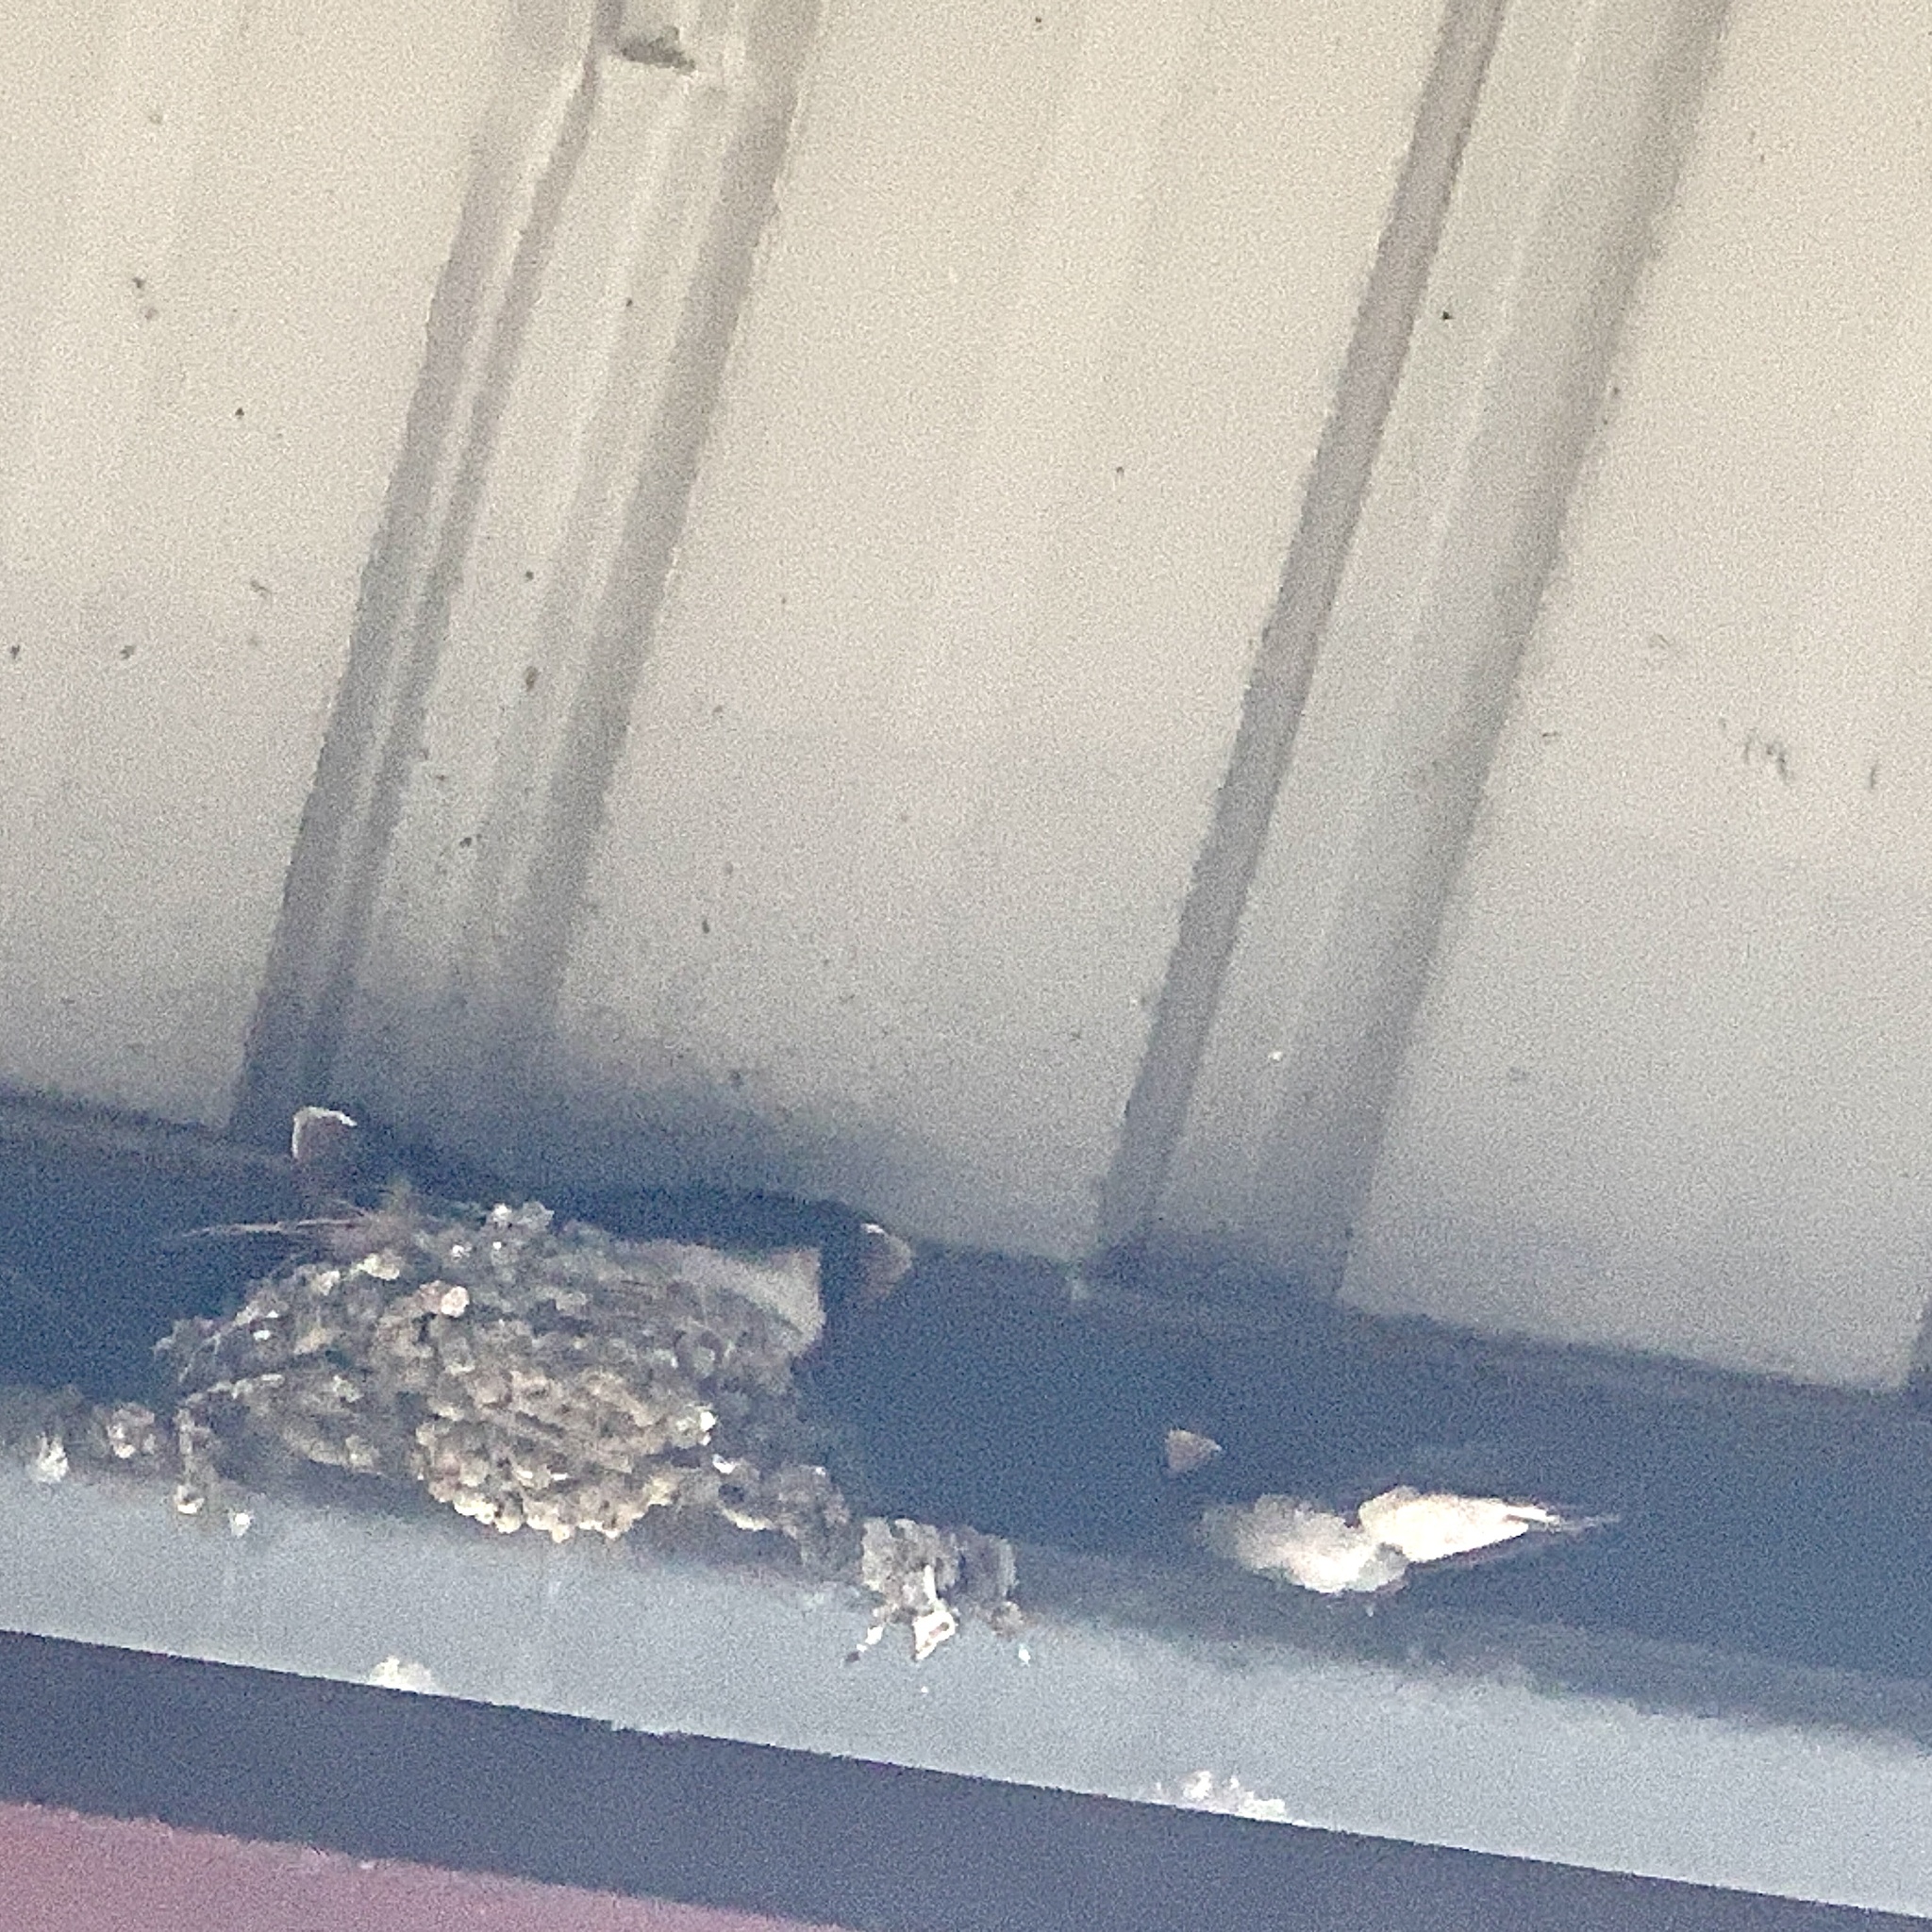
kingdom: Animalia
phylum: Chordata
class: Aves
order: Passeriformes
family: Hirundinidae
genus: Hirundo
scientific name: Hirundo rustica
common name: Barn swallow
